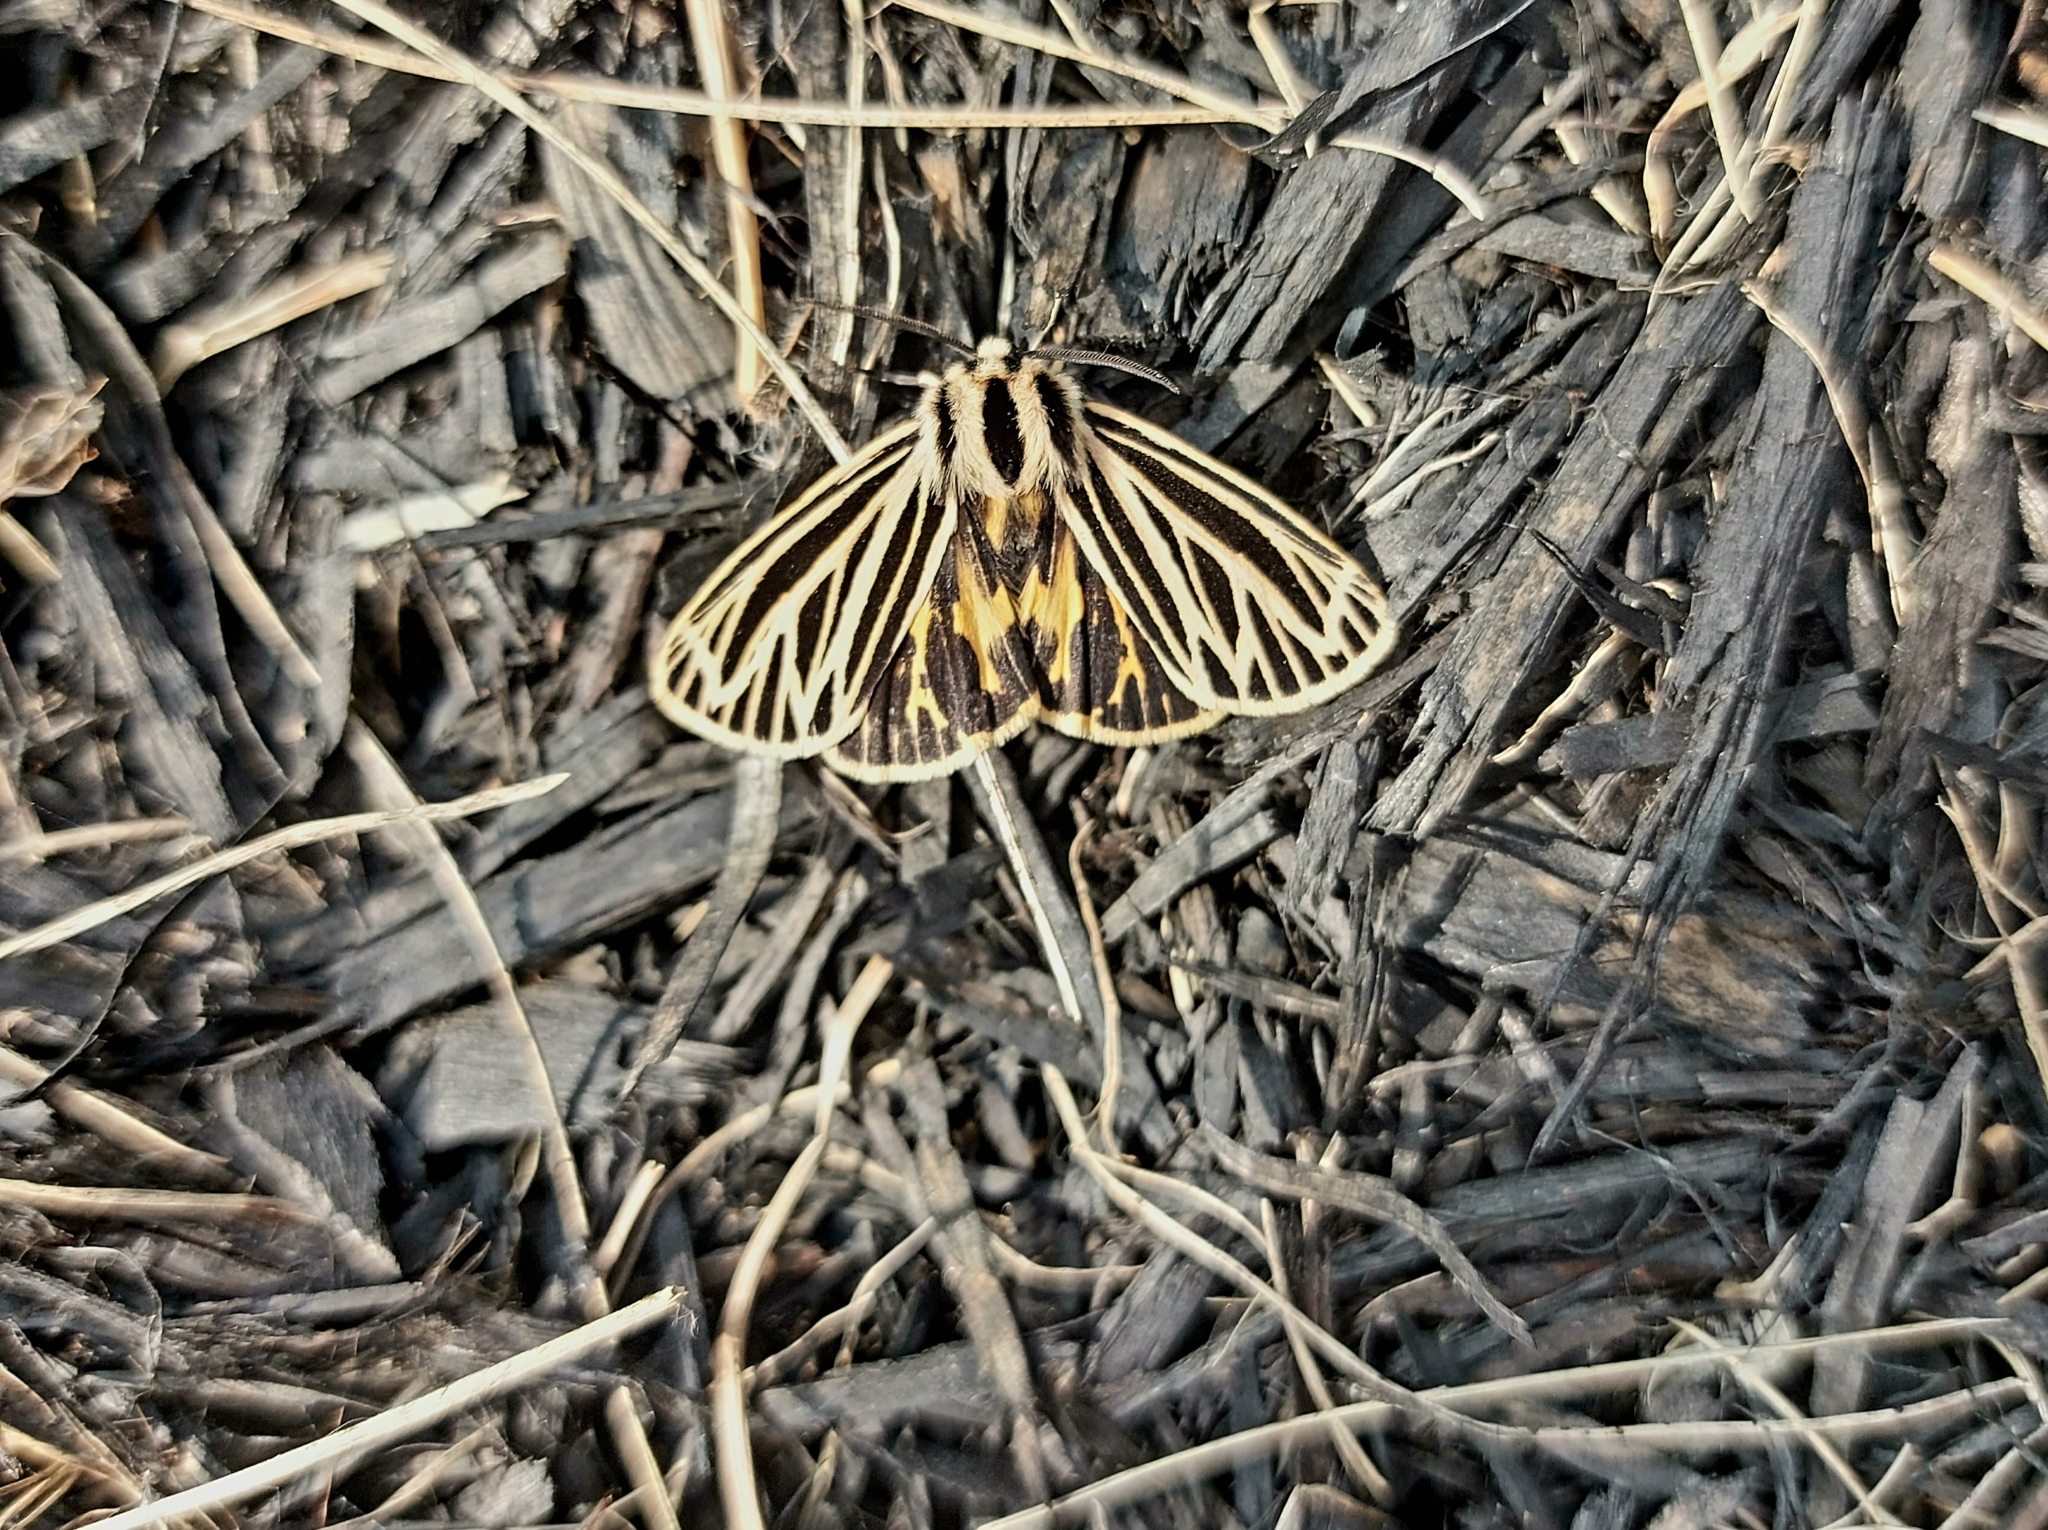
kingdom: Animalia
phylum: Arthropoda
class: Insecta
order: Lepidoptera
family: Erebidae
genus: Grammia
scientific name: Grammia virguncula
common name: Little tiger moth
